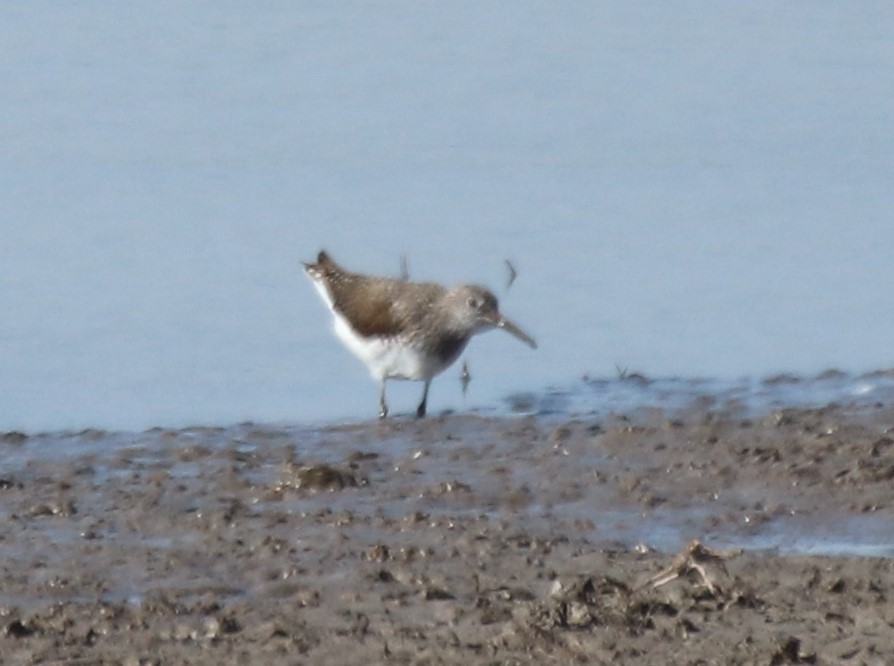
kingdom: Animalia
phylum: Chordata
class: Aves
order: Charadriiformes
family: Scolopacidae
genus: Tringa
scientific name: Tringa ochropus
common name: Green sandpiper
